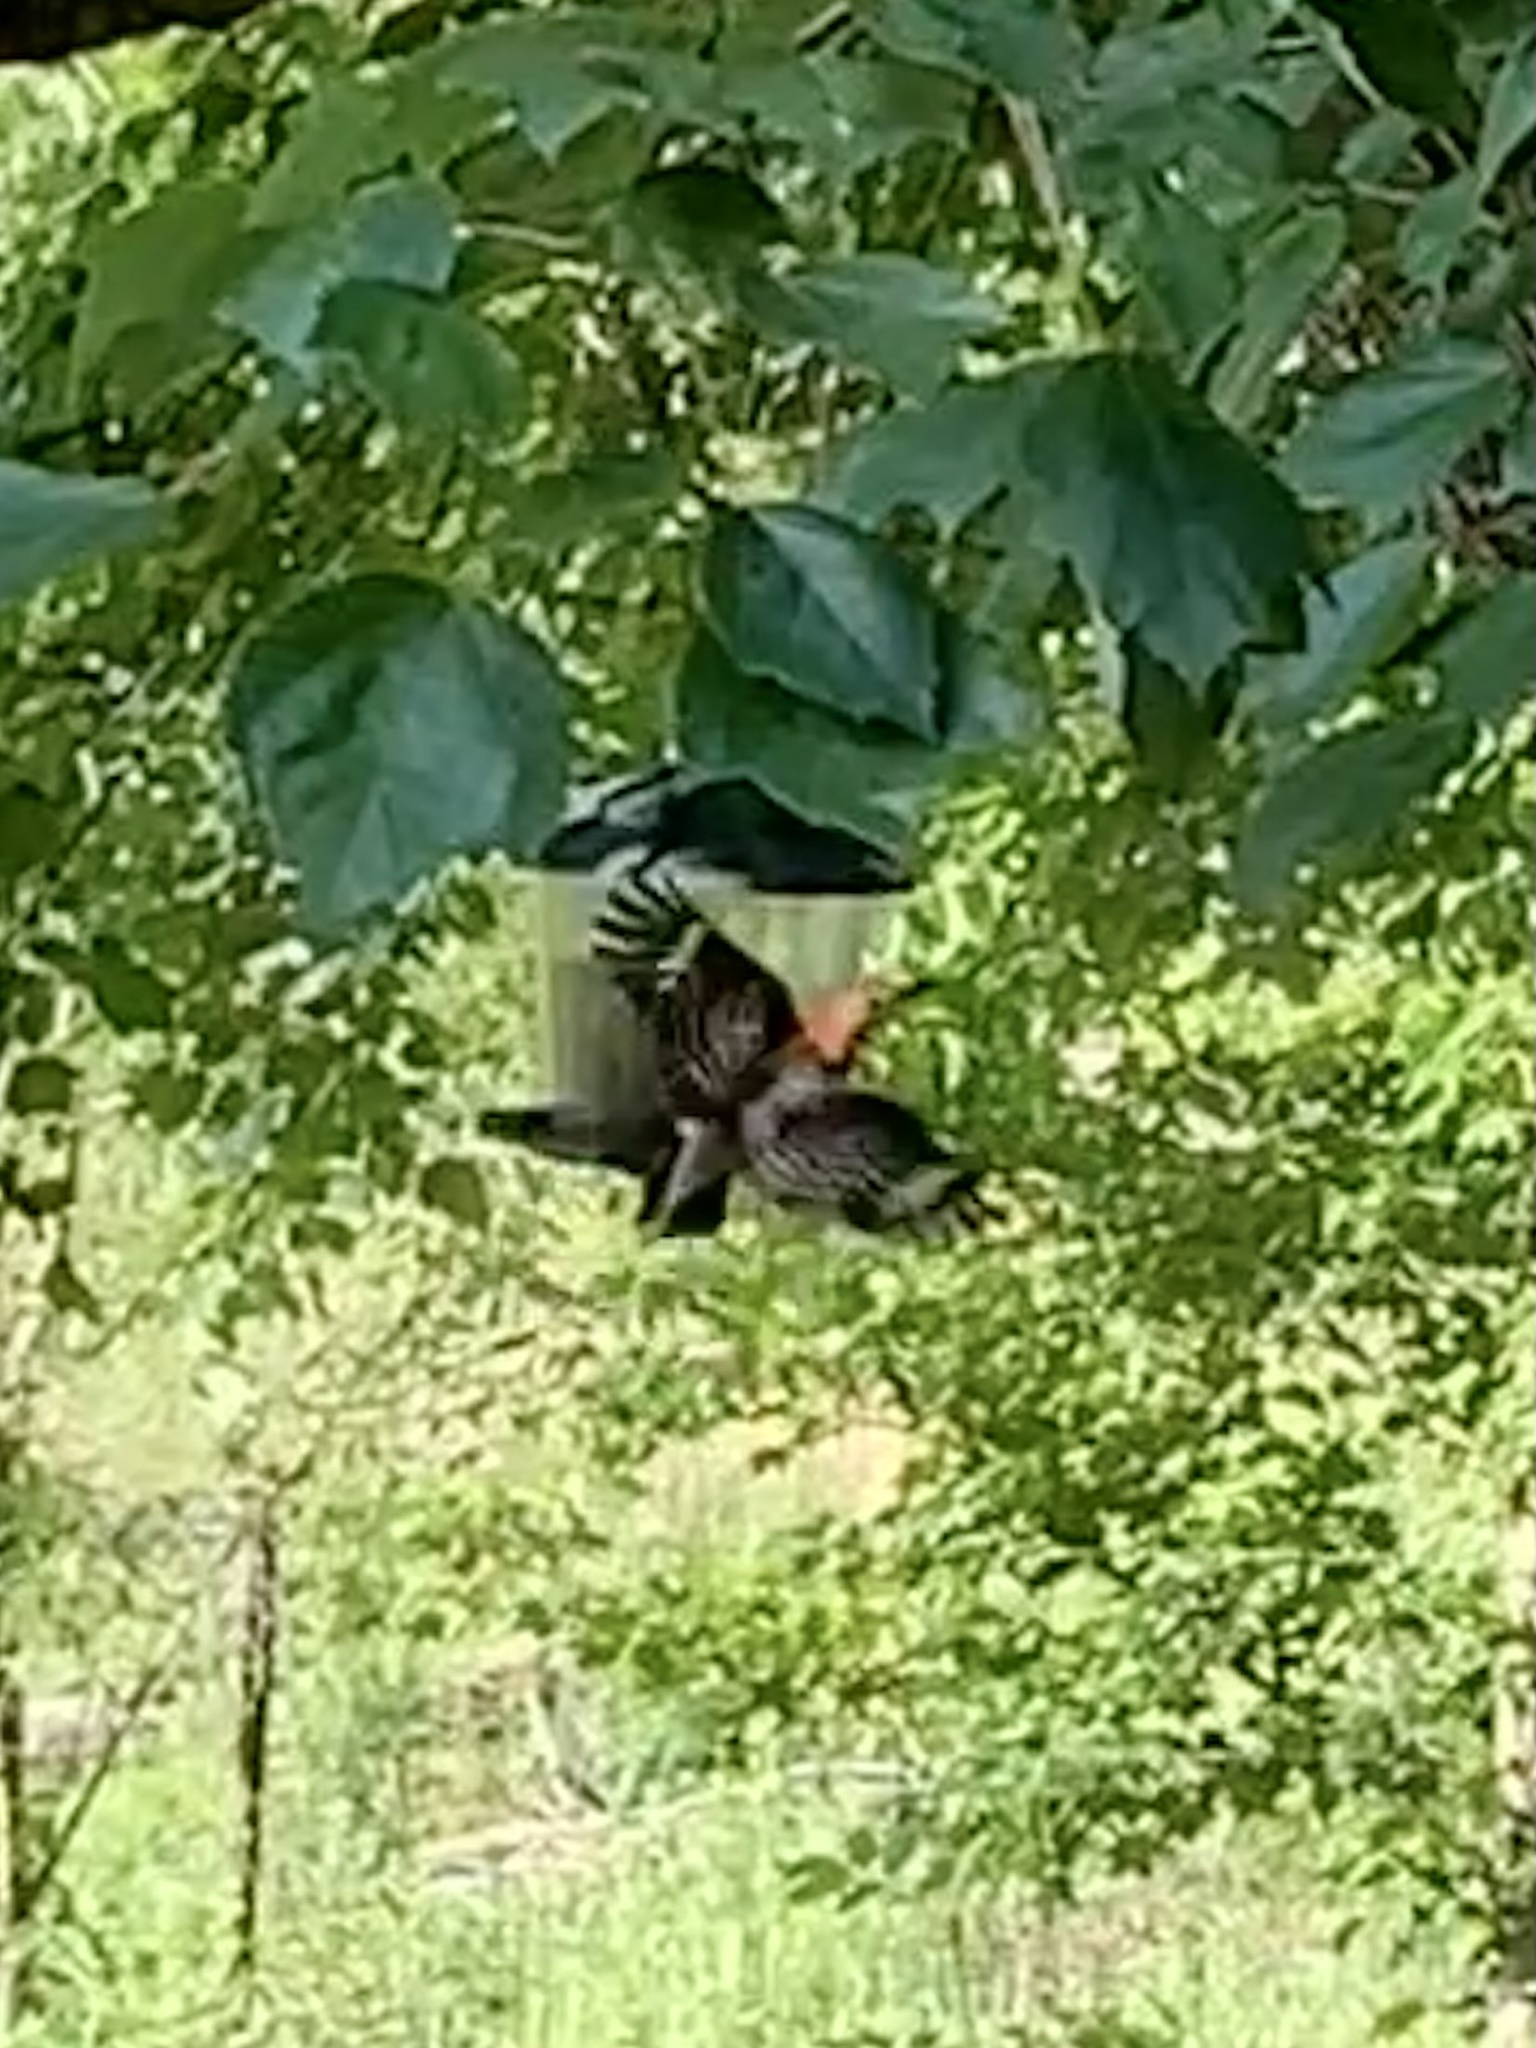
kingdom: Animalia
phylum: Chordata
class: Aves
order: Piciformes
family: Picidae
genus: Melanerpes
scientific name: Melanerpes carolinus
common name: Red-bellied woodpecker
